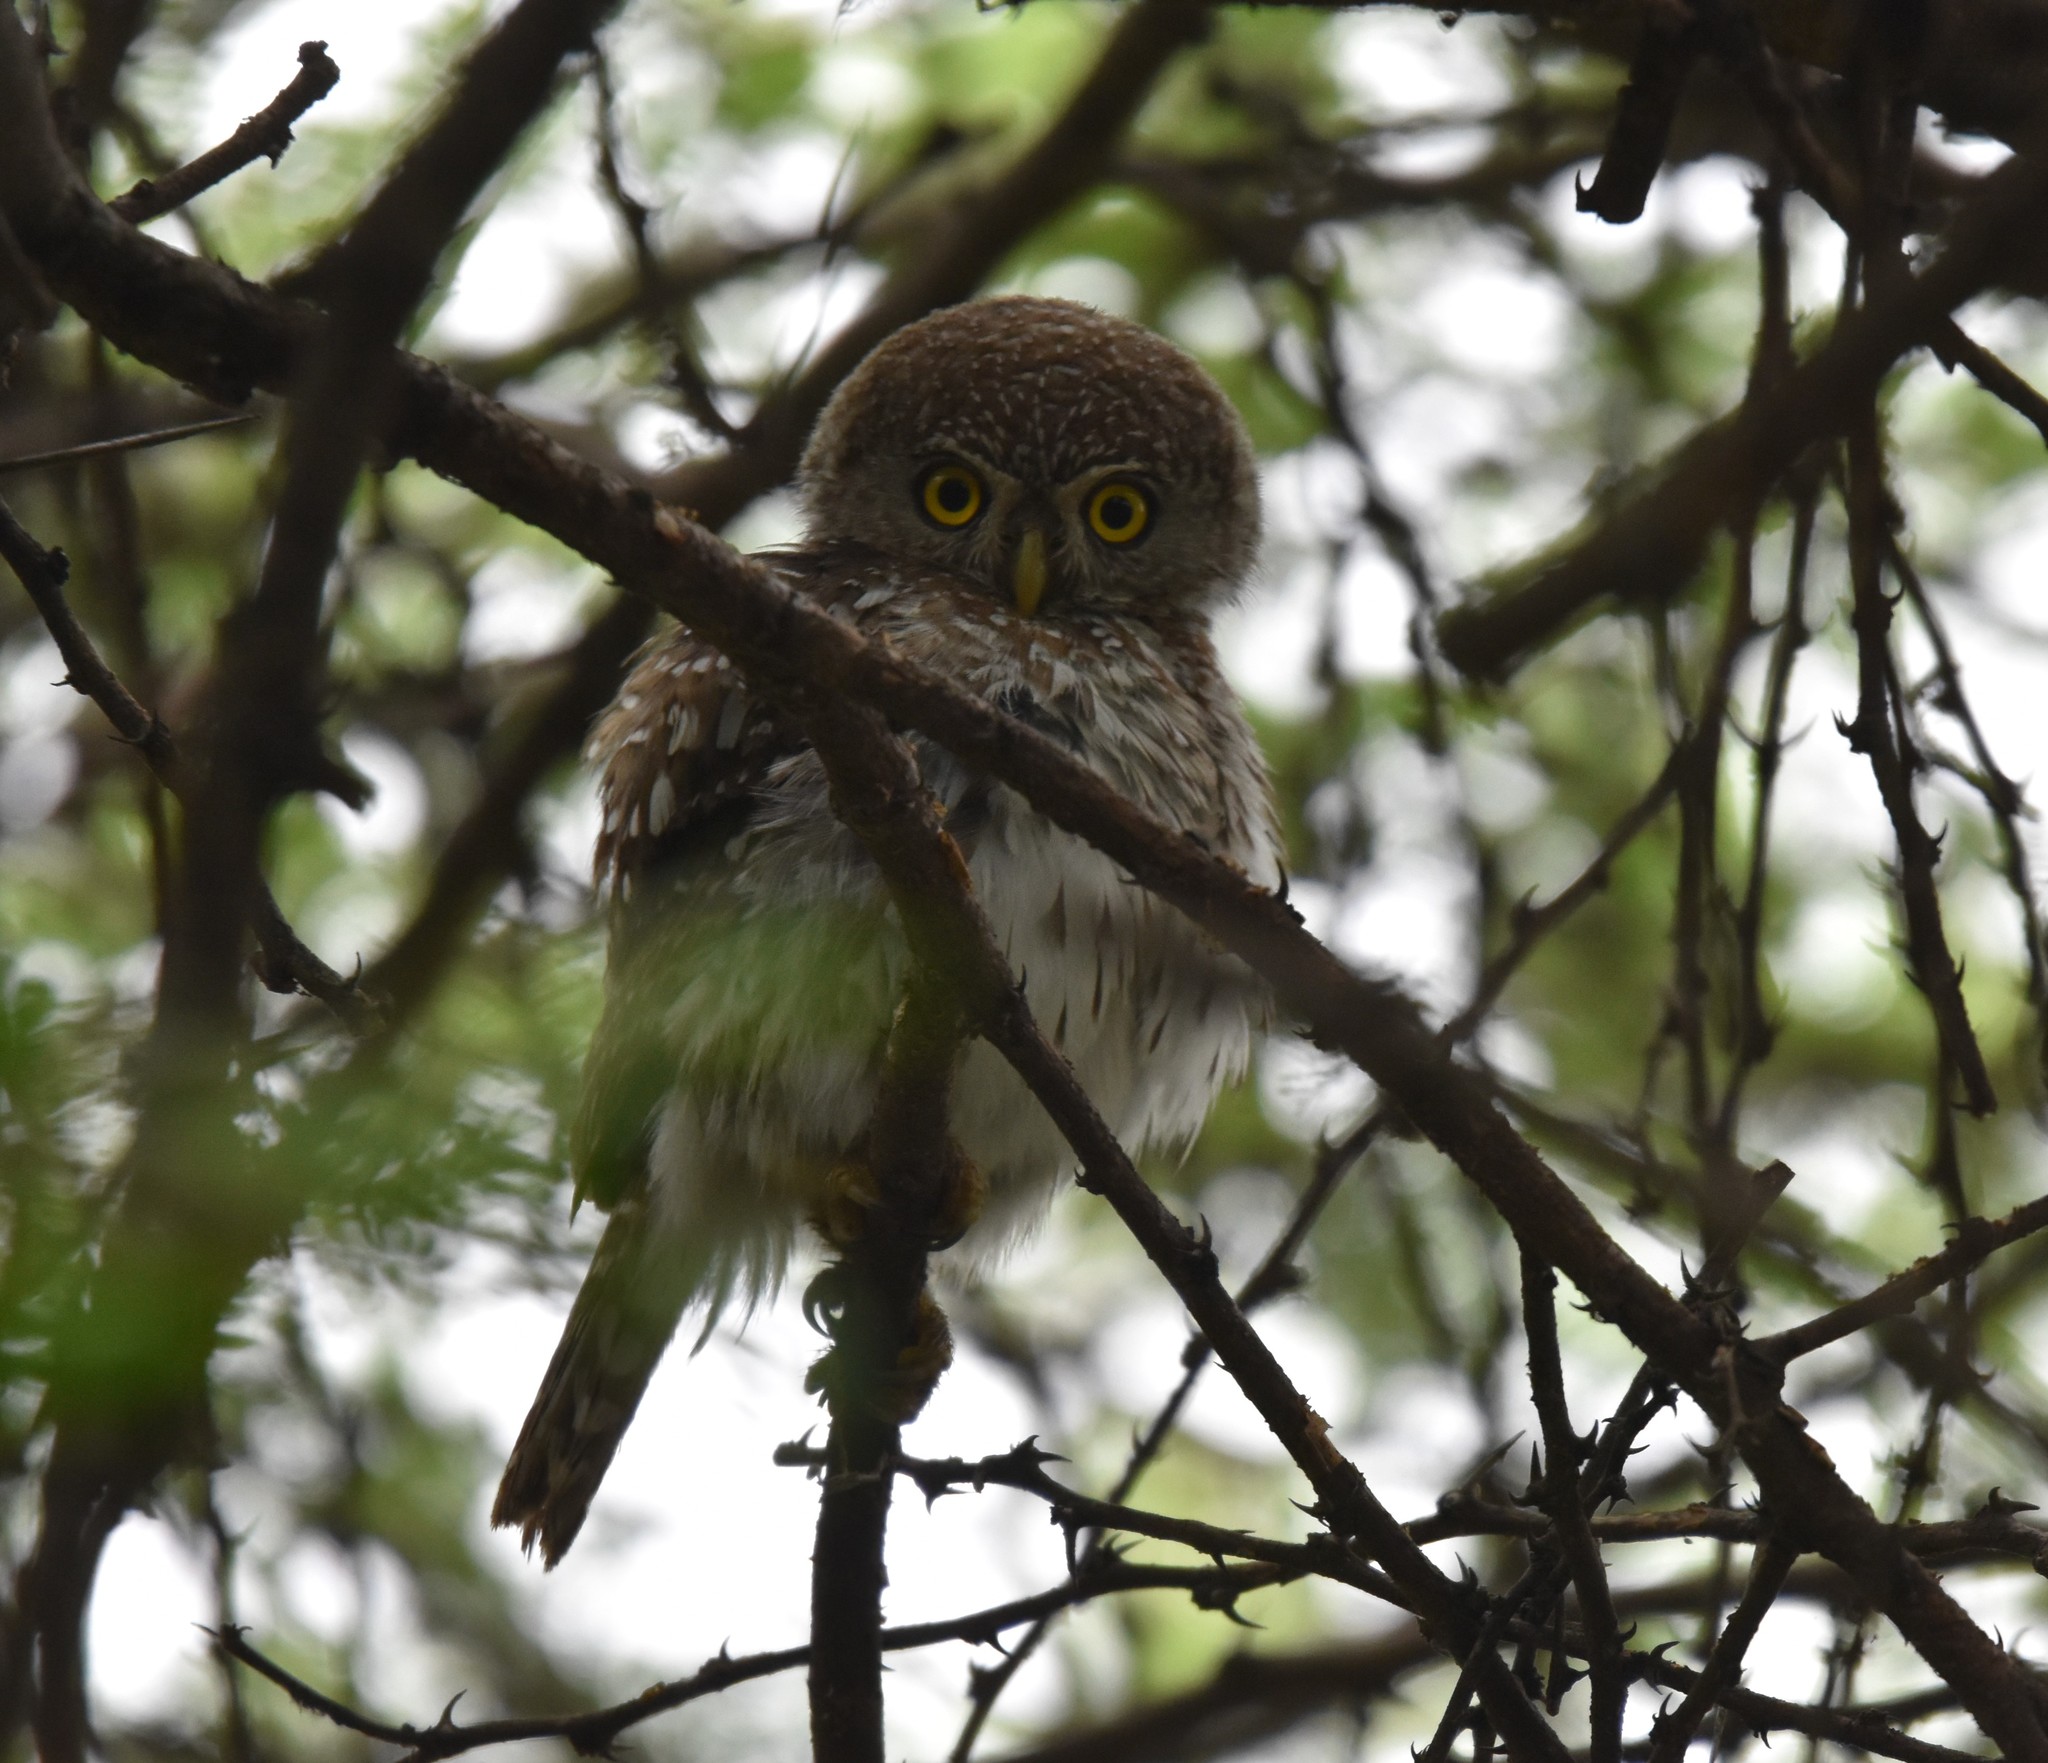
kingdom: Animalia
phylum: Chordata
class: Aves
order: Strigiformes
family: Strigidae
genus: Glaucidium
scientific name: Glaucidium perlatum
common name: Pearl-spotted owlet
